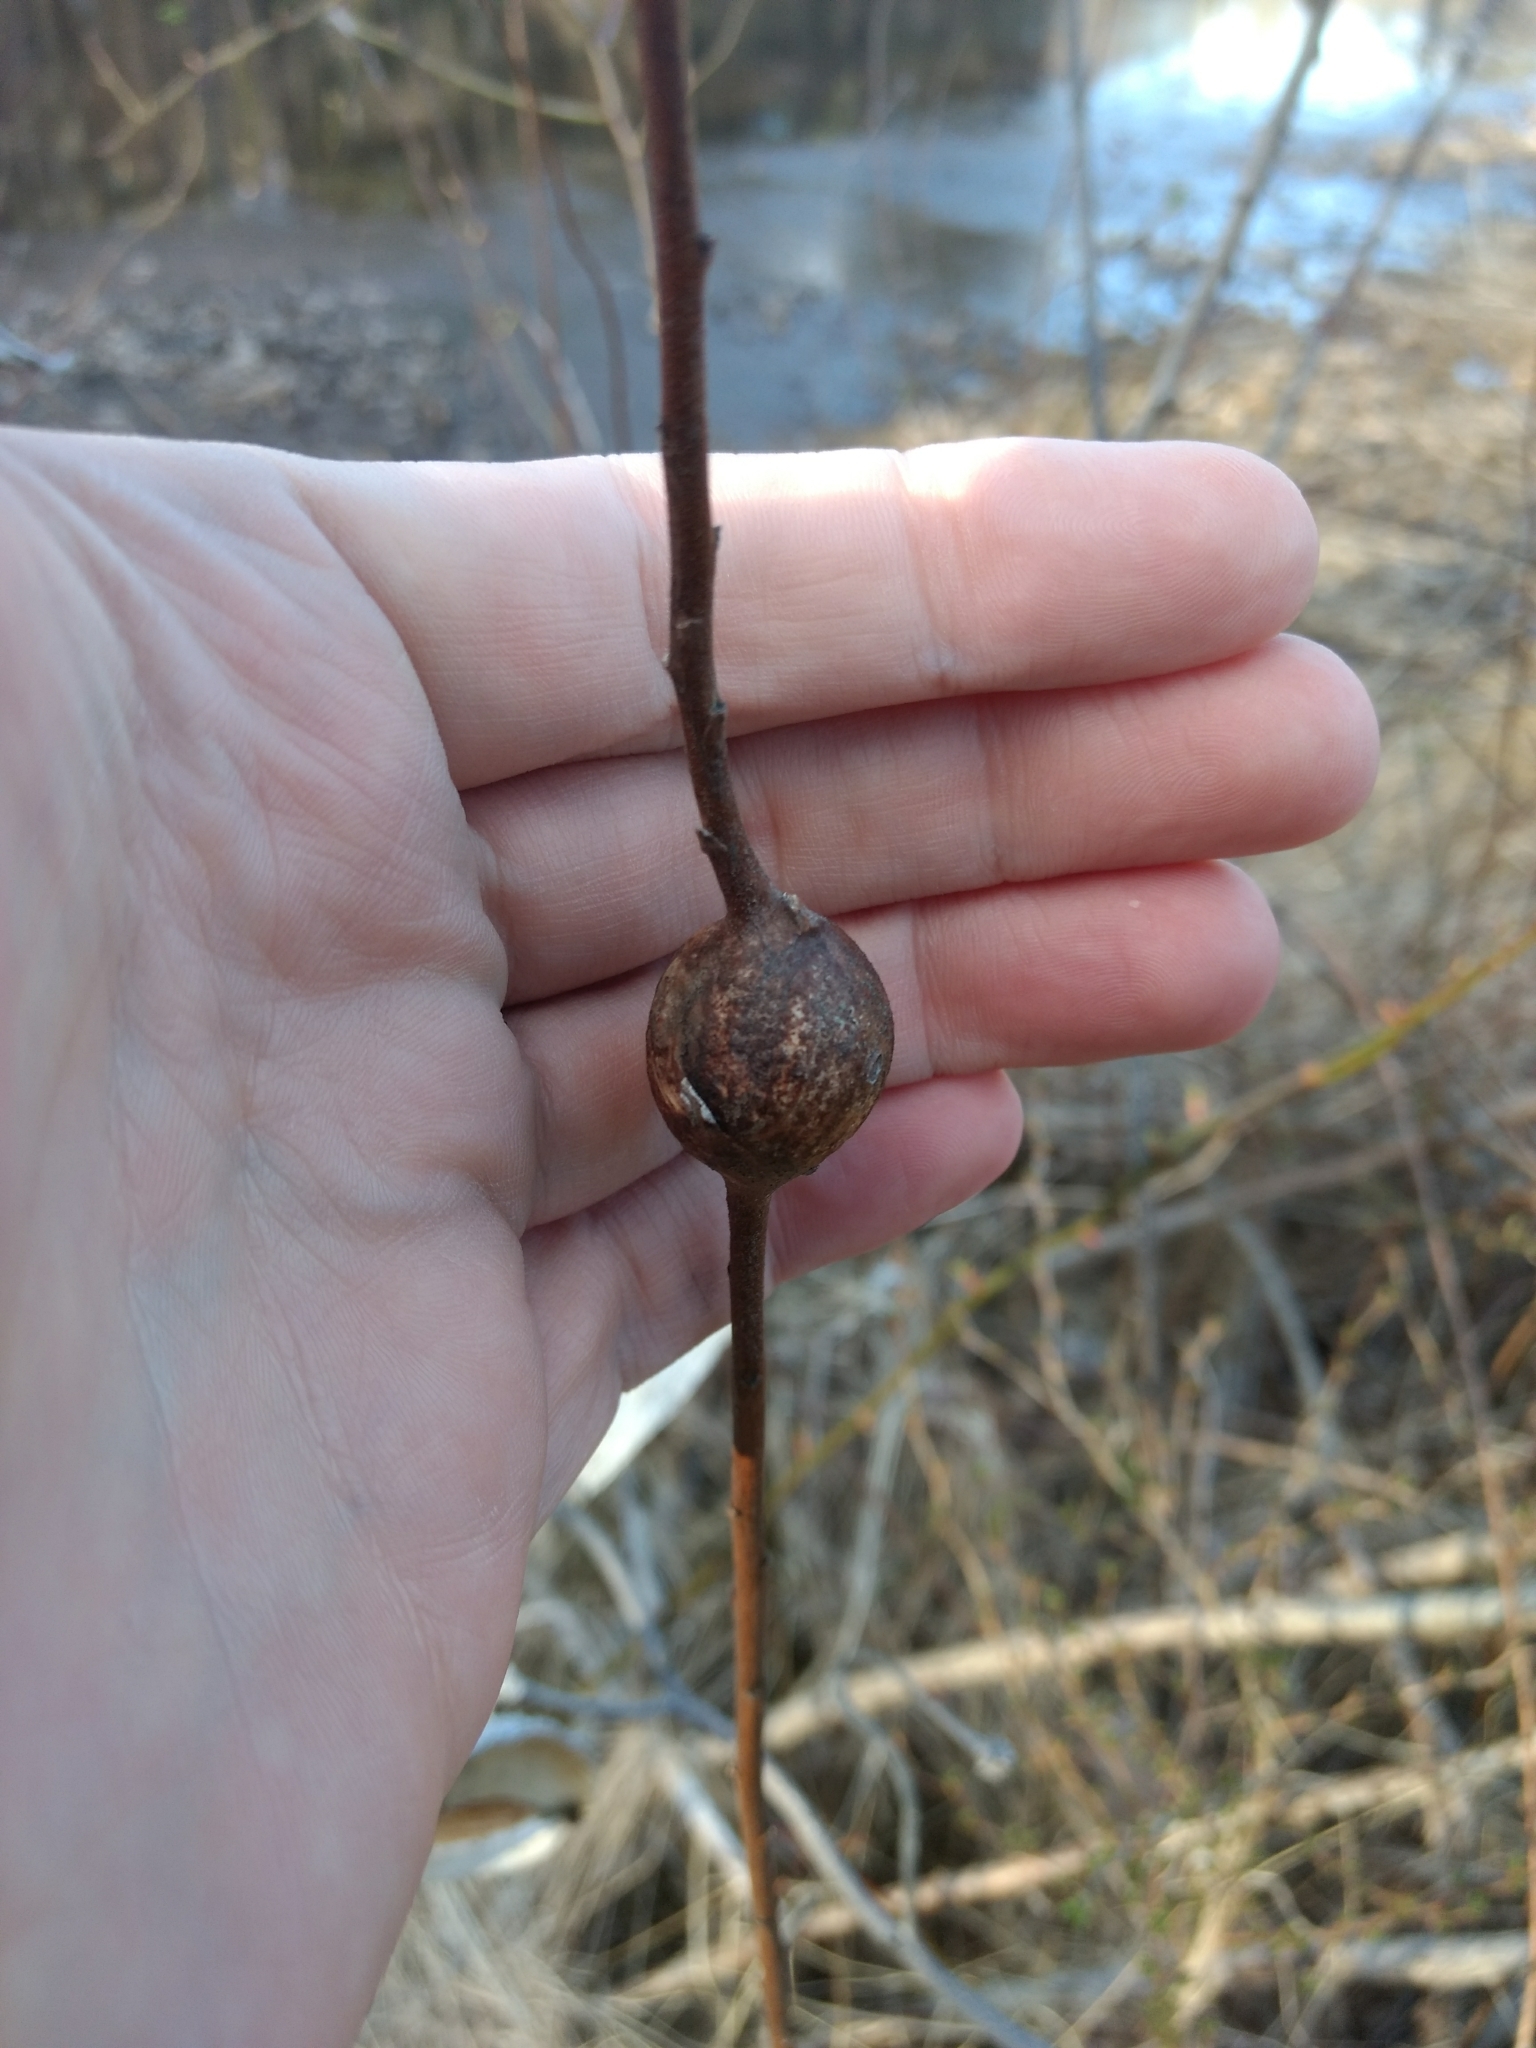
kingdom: Animalia
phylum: Arthropoda
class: Insecta
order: Diptera
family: Tephritidae
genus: Eurosta
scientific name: Eurosta solidaginis
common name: Goldenrod gall fly
